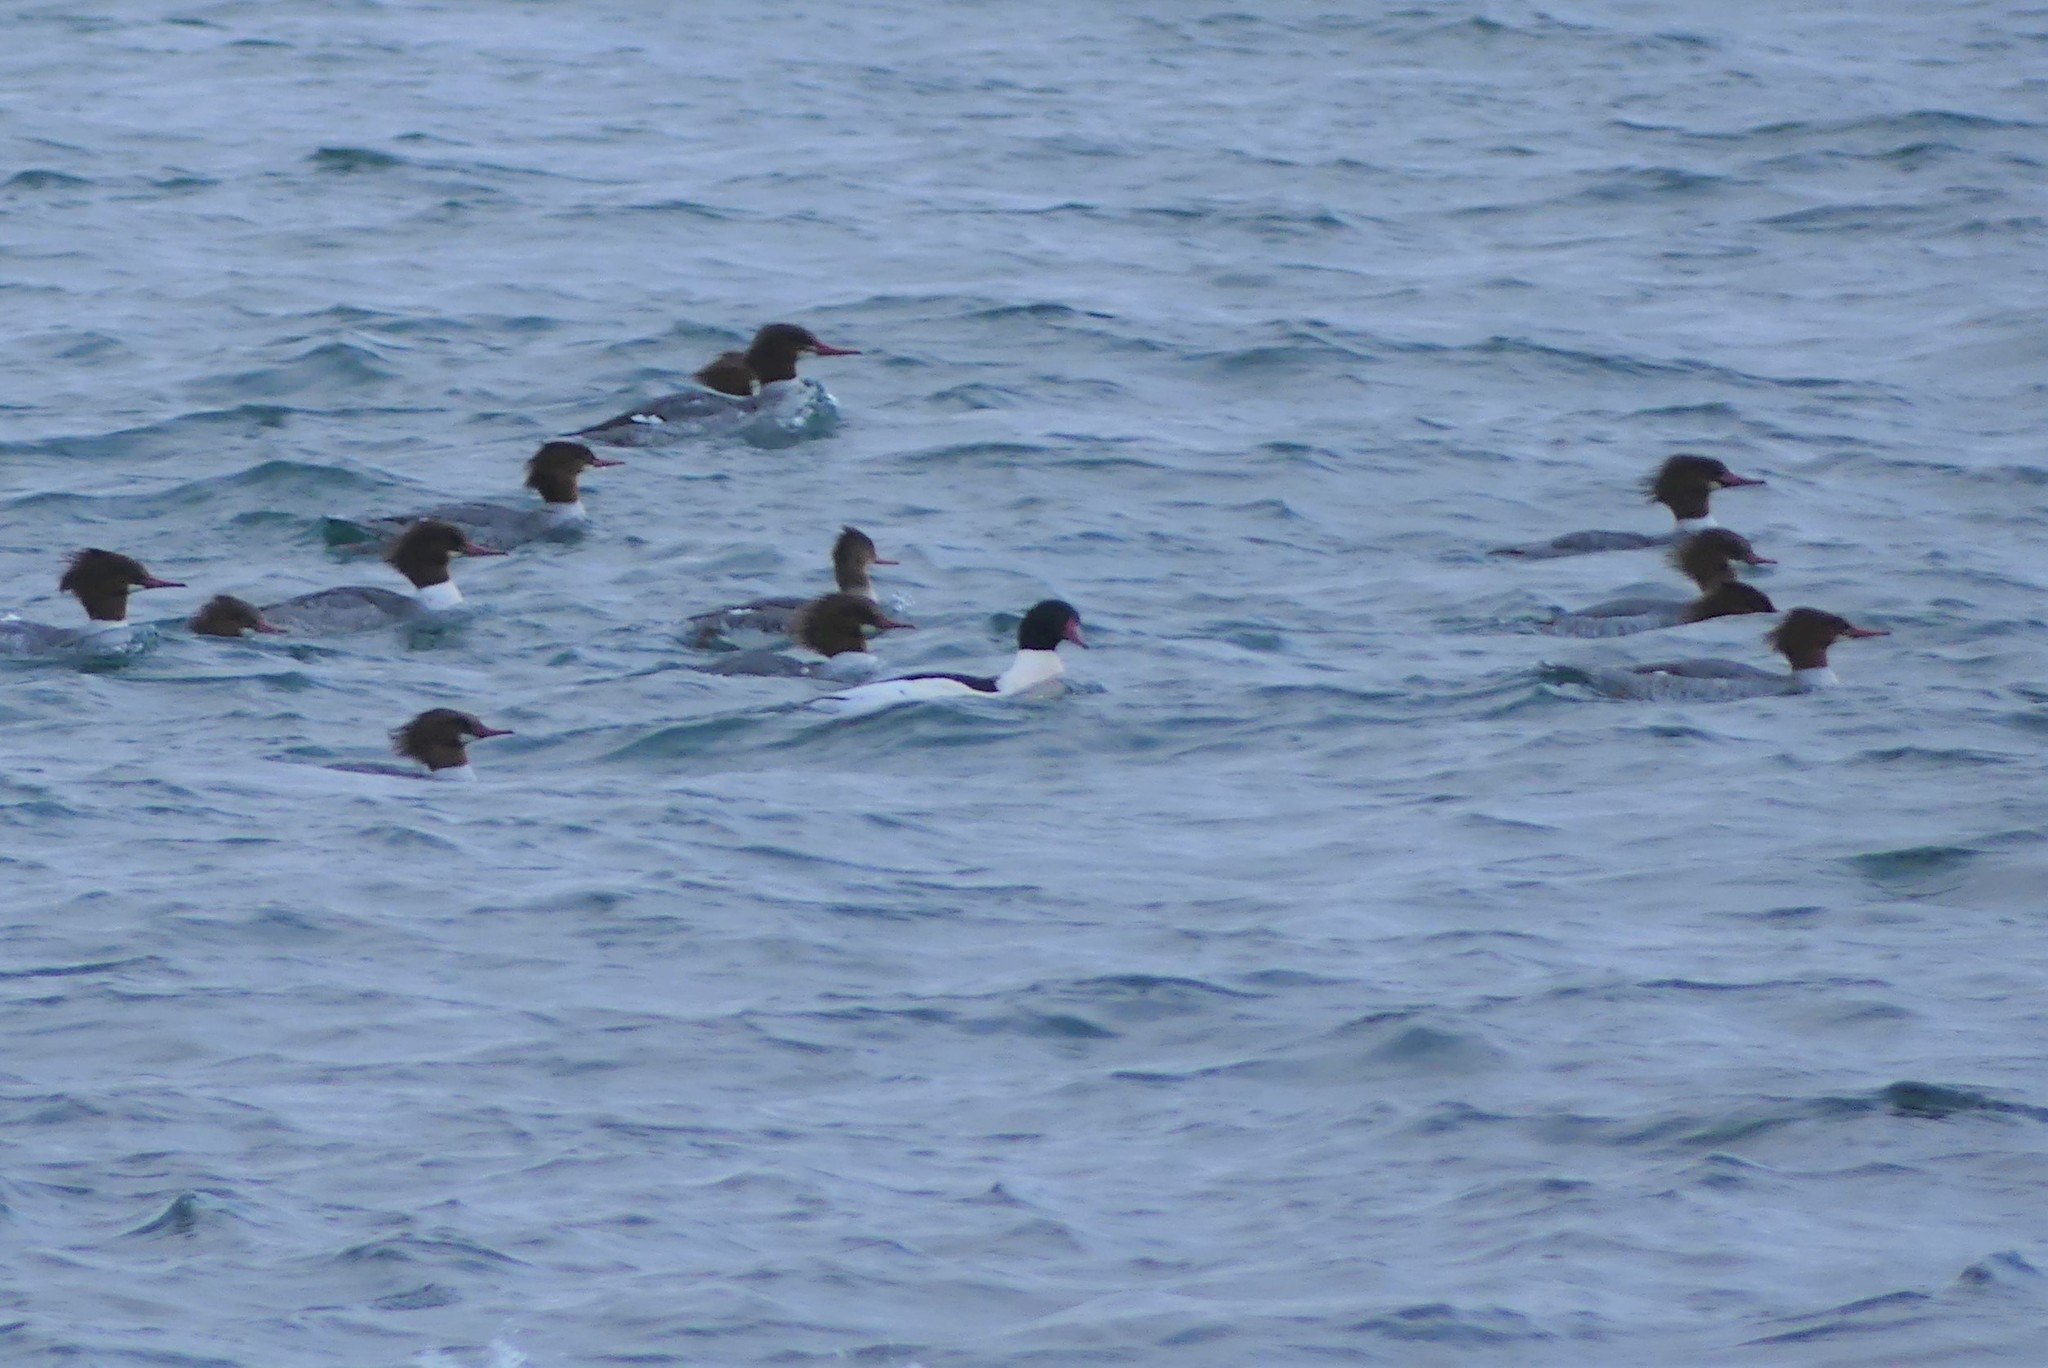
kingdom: Animalia
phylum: Chordata
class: Aves
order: Anseriformes
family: Anatidae
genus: Mergus
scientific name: Mergus merganser
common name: Common merganser
